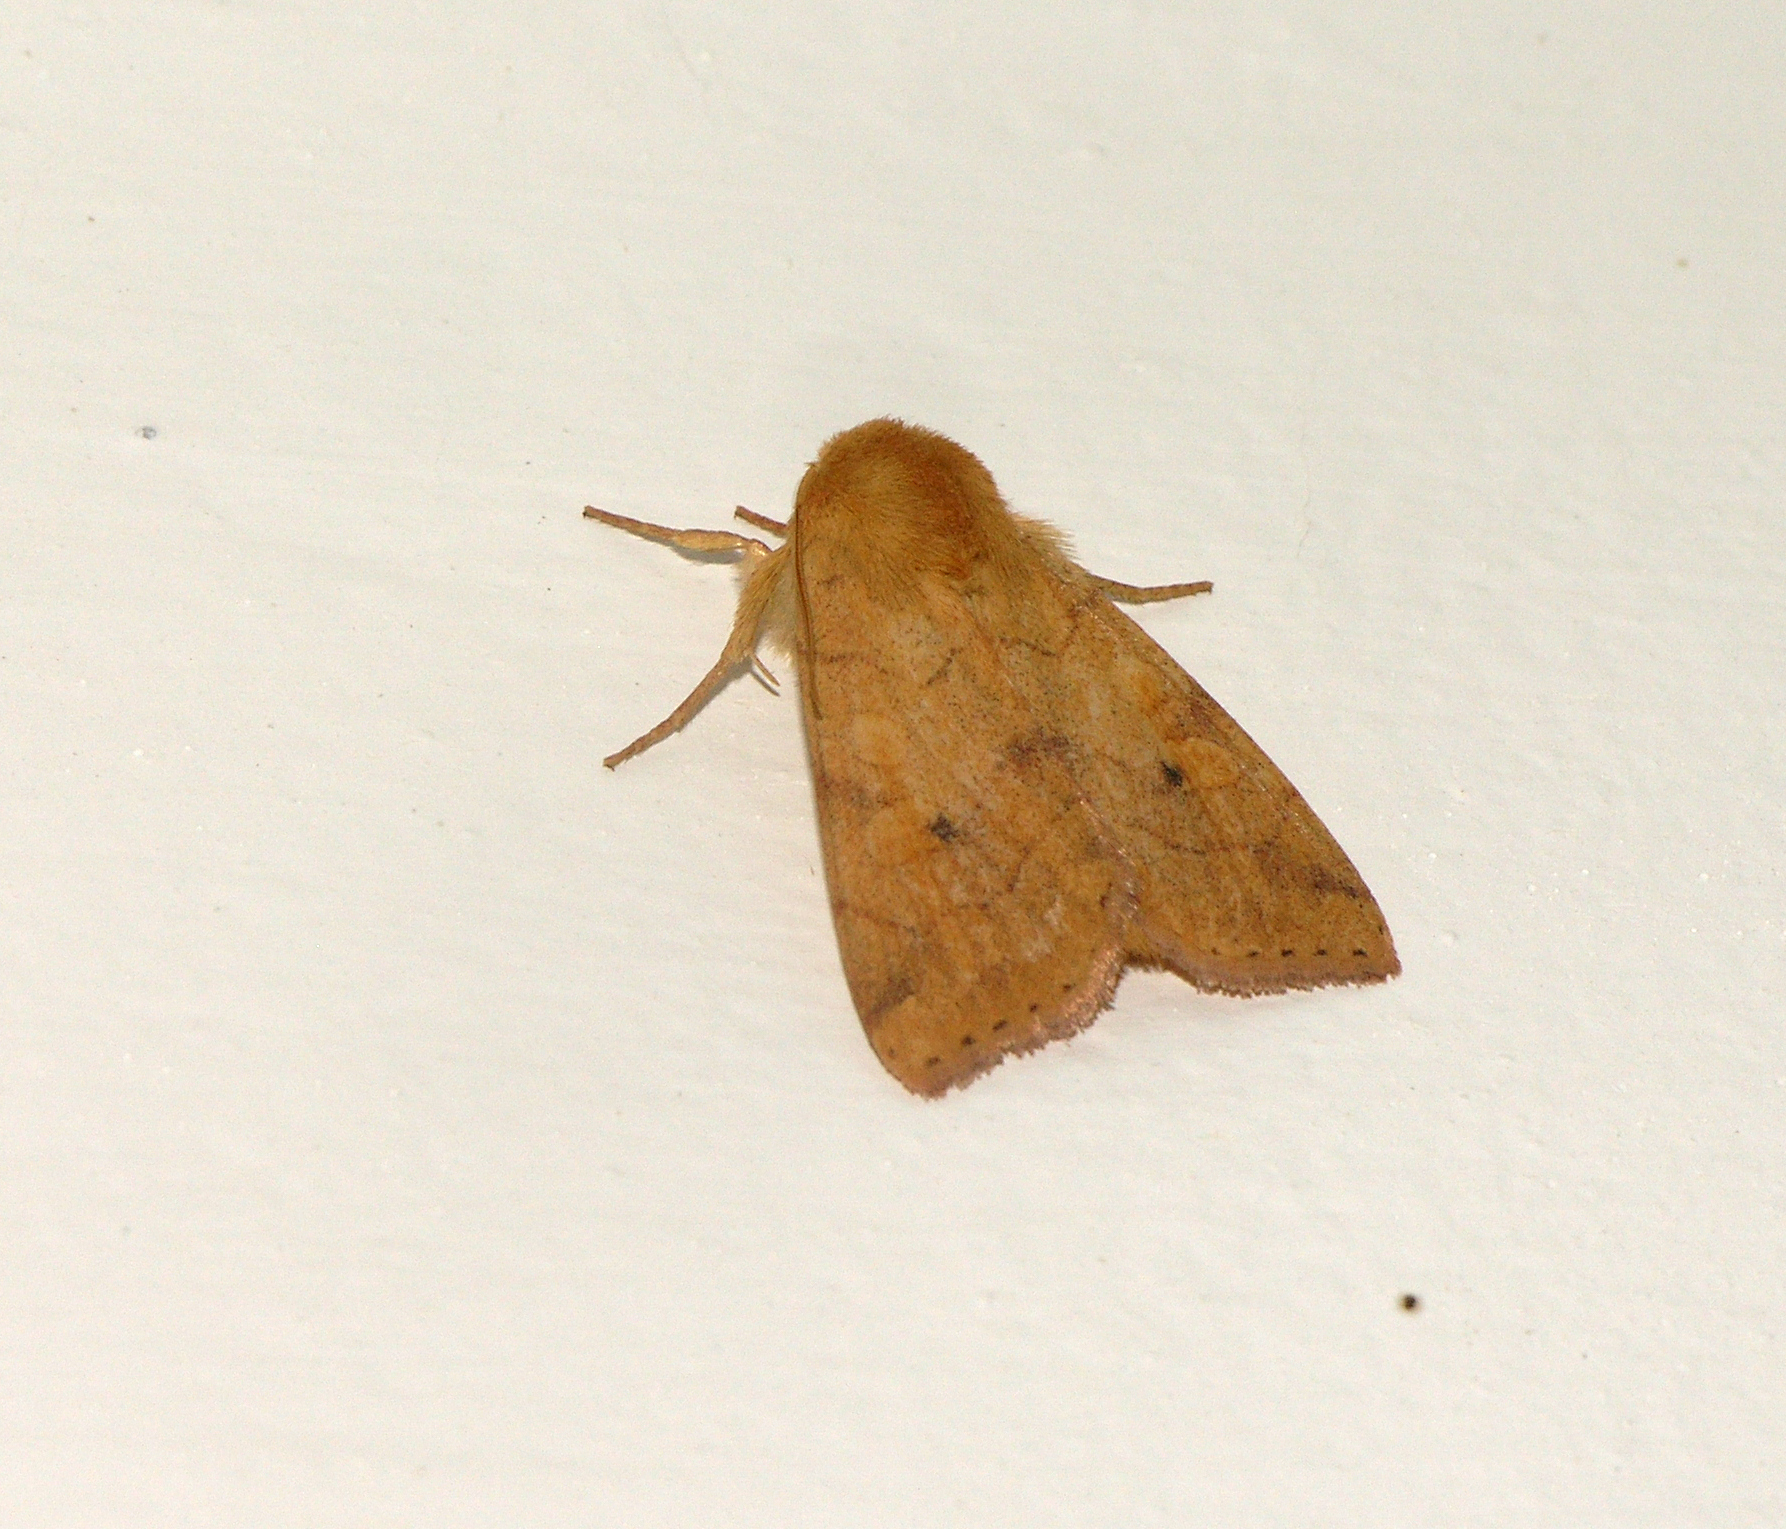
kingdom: Animalia
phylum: Arthropoda
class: Insecta
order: Lepidoptera
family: Noctuidae
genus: Enargia
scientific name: Enargia paleacea
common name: Angle-striped sallow
